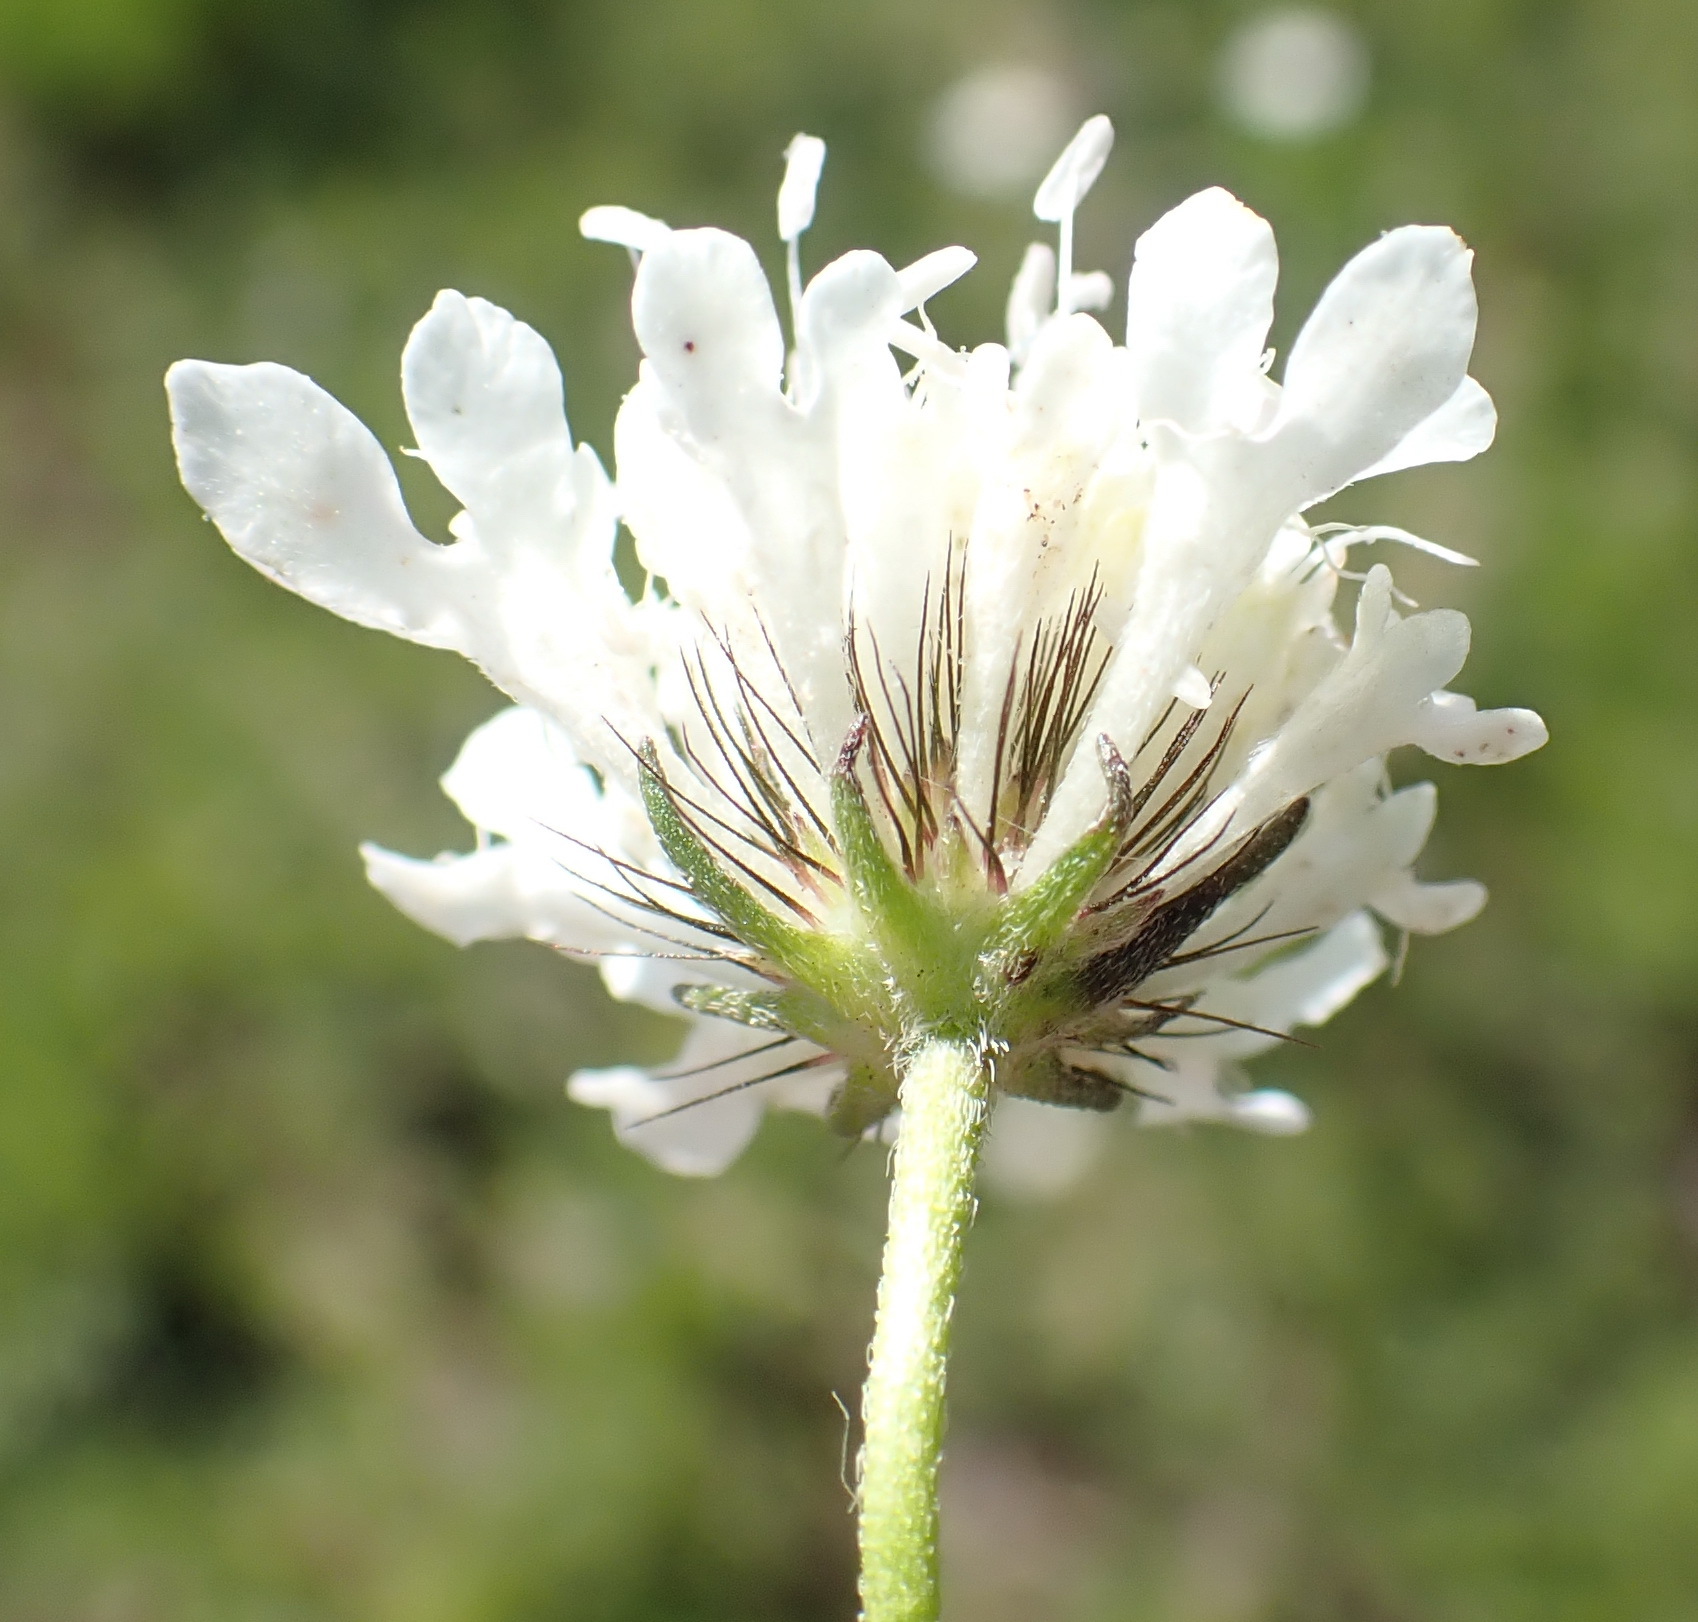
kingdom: Plantae
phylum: Tracheophyta
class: Magnoliopsida
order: Dipsacales
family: Caprifoliaceae
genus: Scabiosa
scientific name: Scabiosa columbaria
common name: Small scabious
